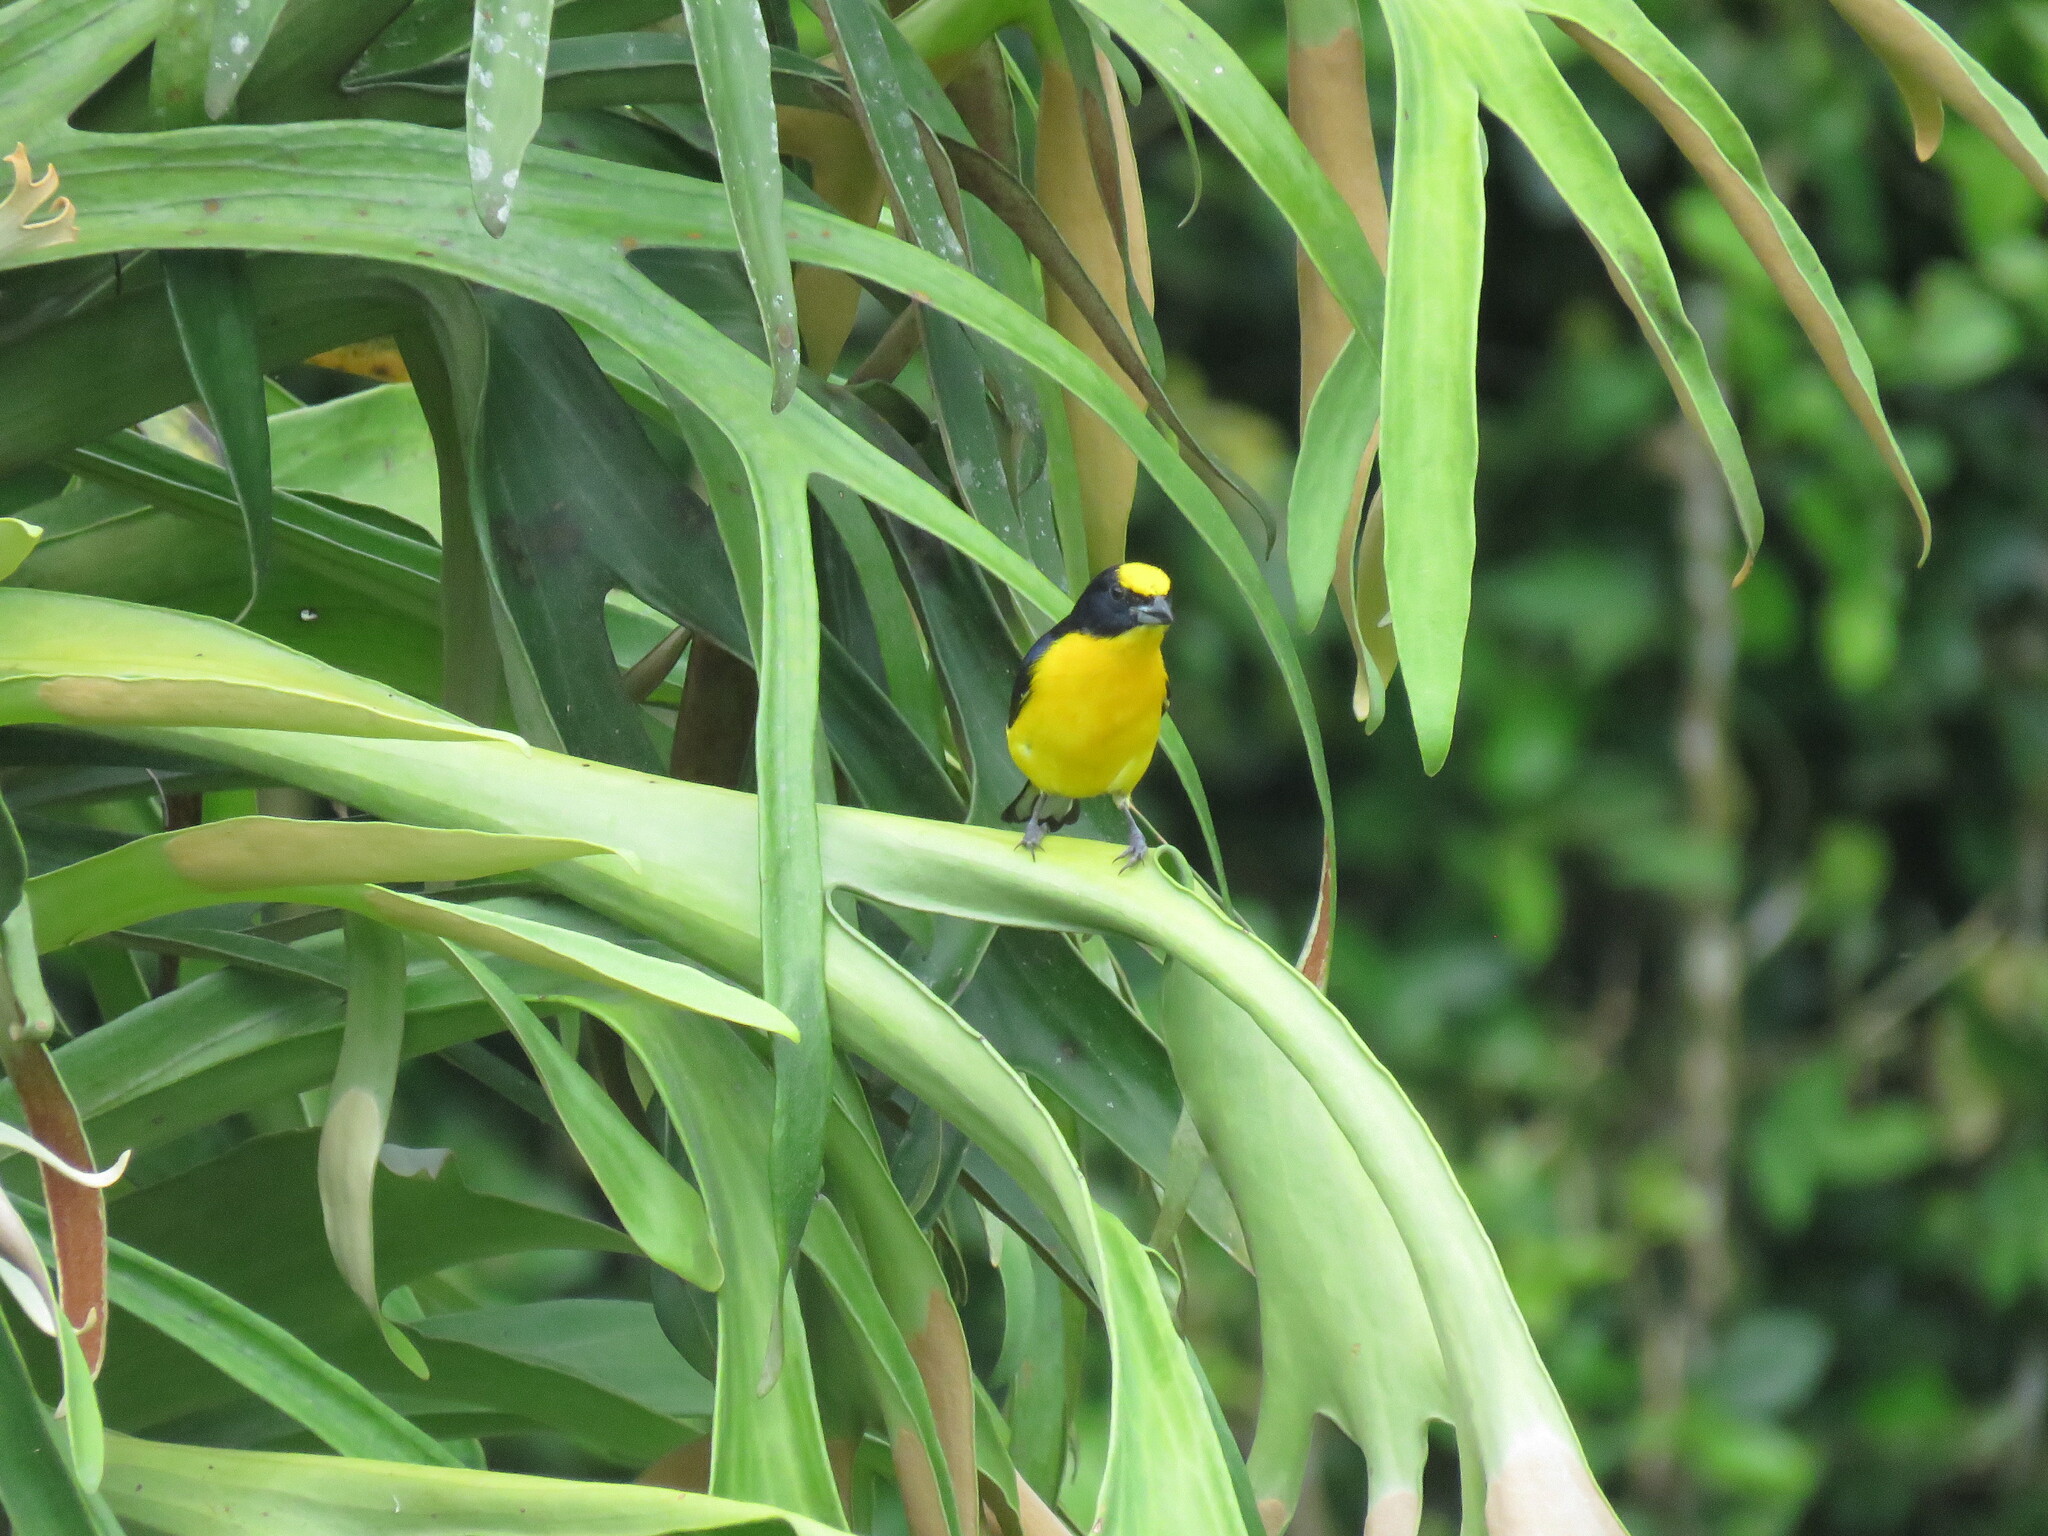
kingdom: Animalia
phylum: Chordata
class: Aves
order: Passeriformes
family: Fringillidae
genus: Euphonia
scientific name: Euphonia laniirostris
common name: Thick-billed euphonia
